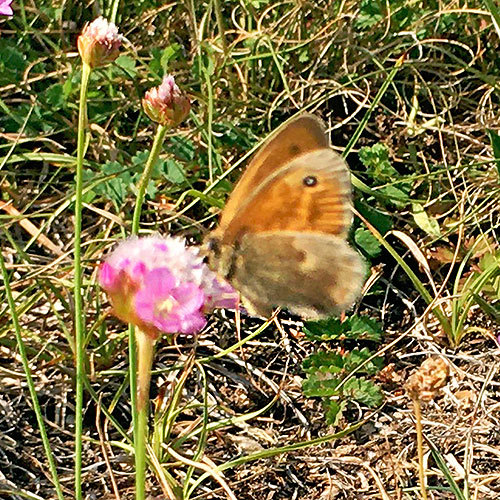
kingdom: Animalia
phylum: Arthropoda
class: Insecta
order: Lepidoptera
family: Nymphalidae
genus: Coenonympha
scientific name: Coenonympha pamphilus
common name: Small heath
